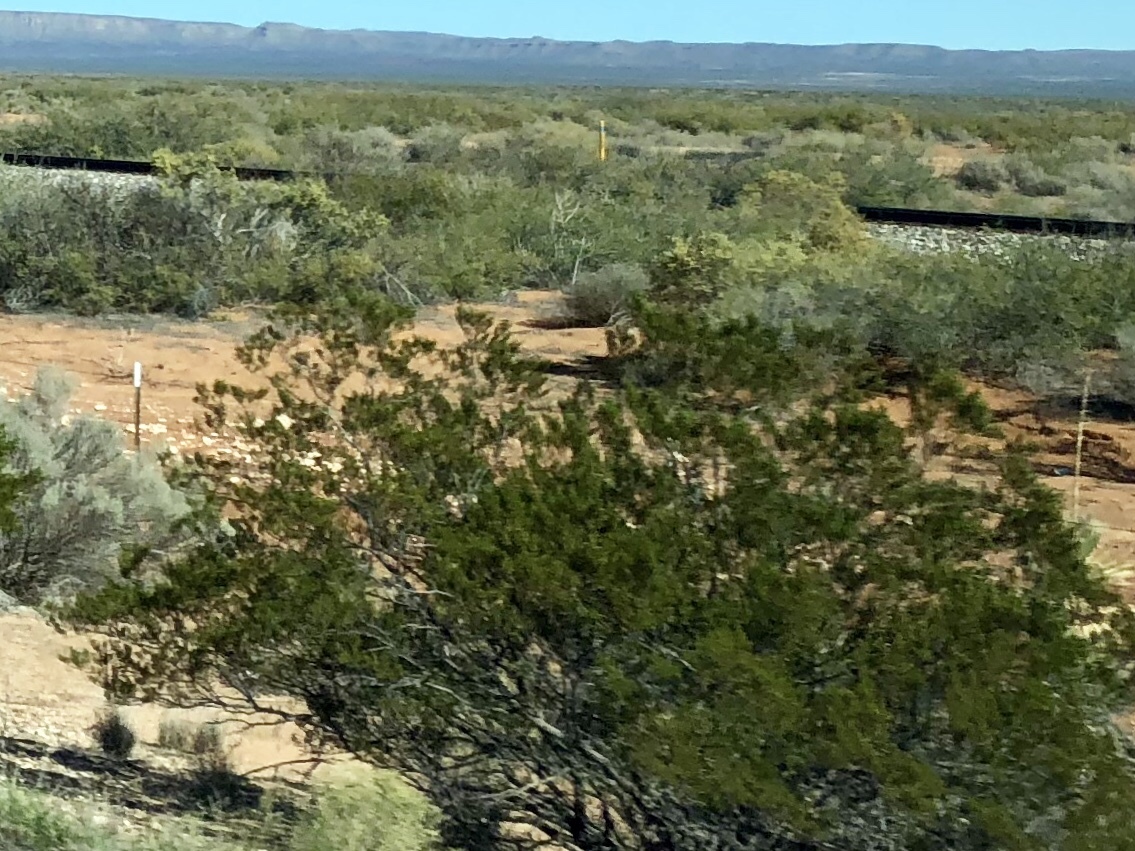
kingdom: Plantae
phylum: Tracheophyta
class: Magnoliopsida
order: Zygophyllales
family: Zygophyllaceae
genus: Larrea
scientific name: Larrea tridentata
